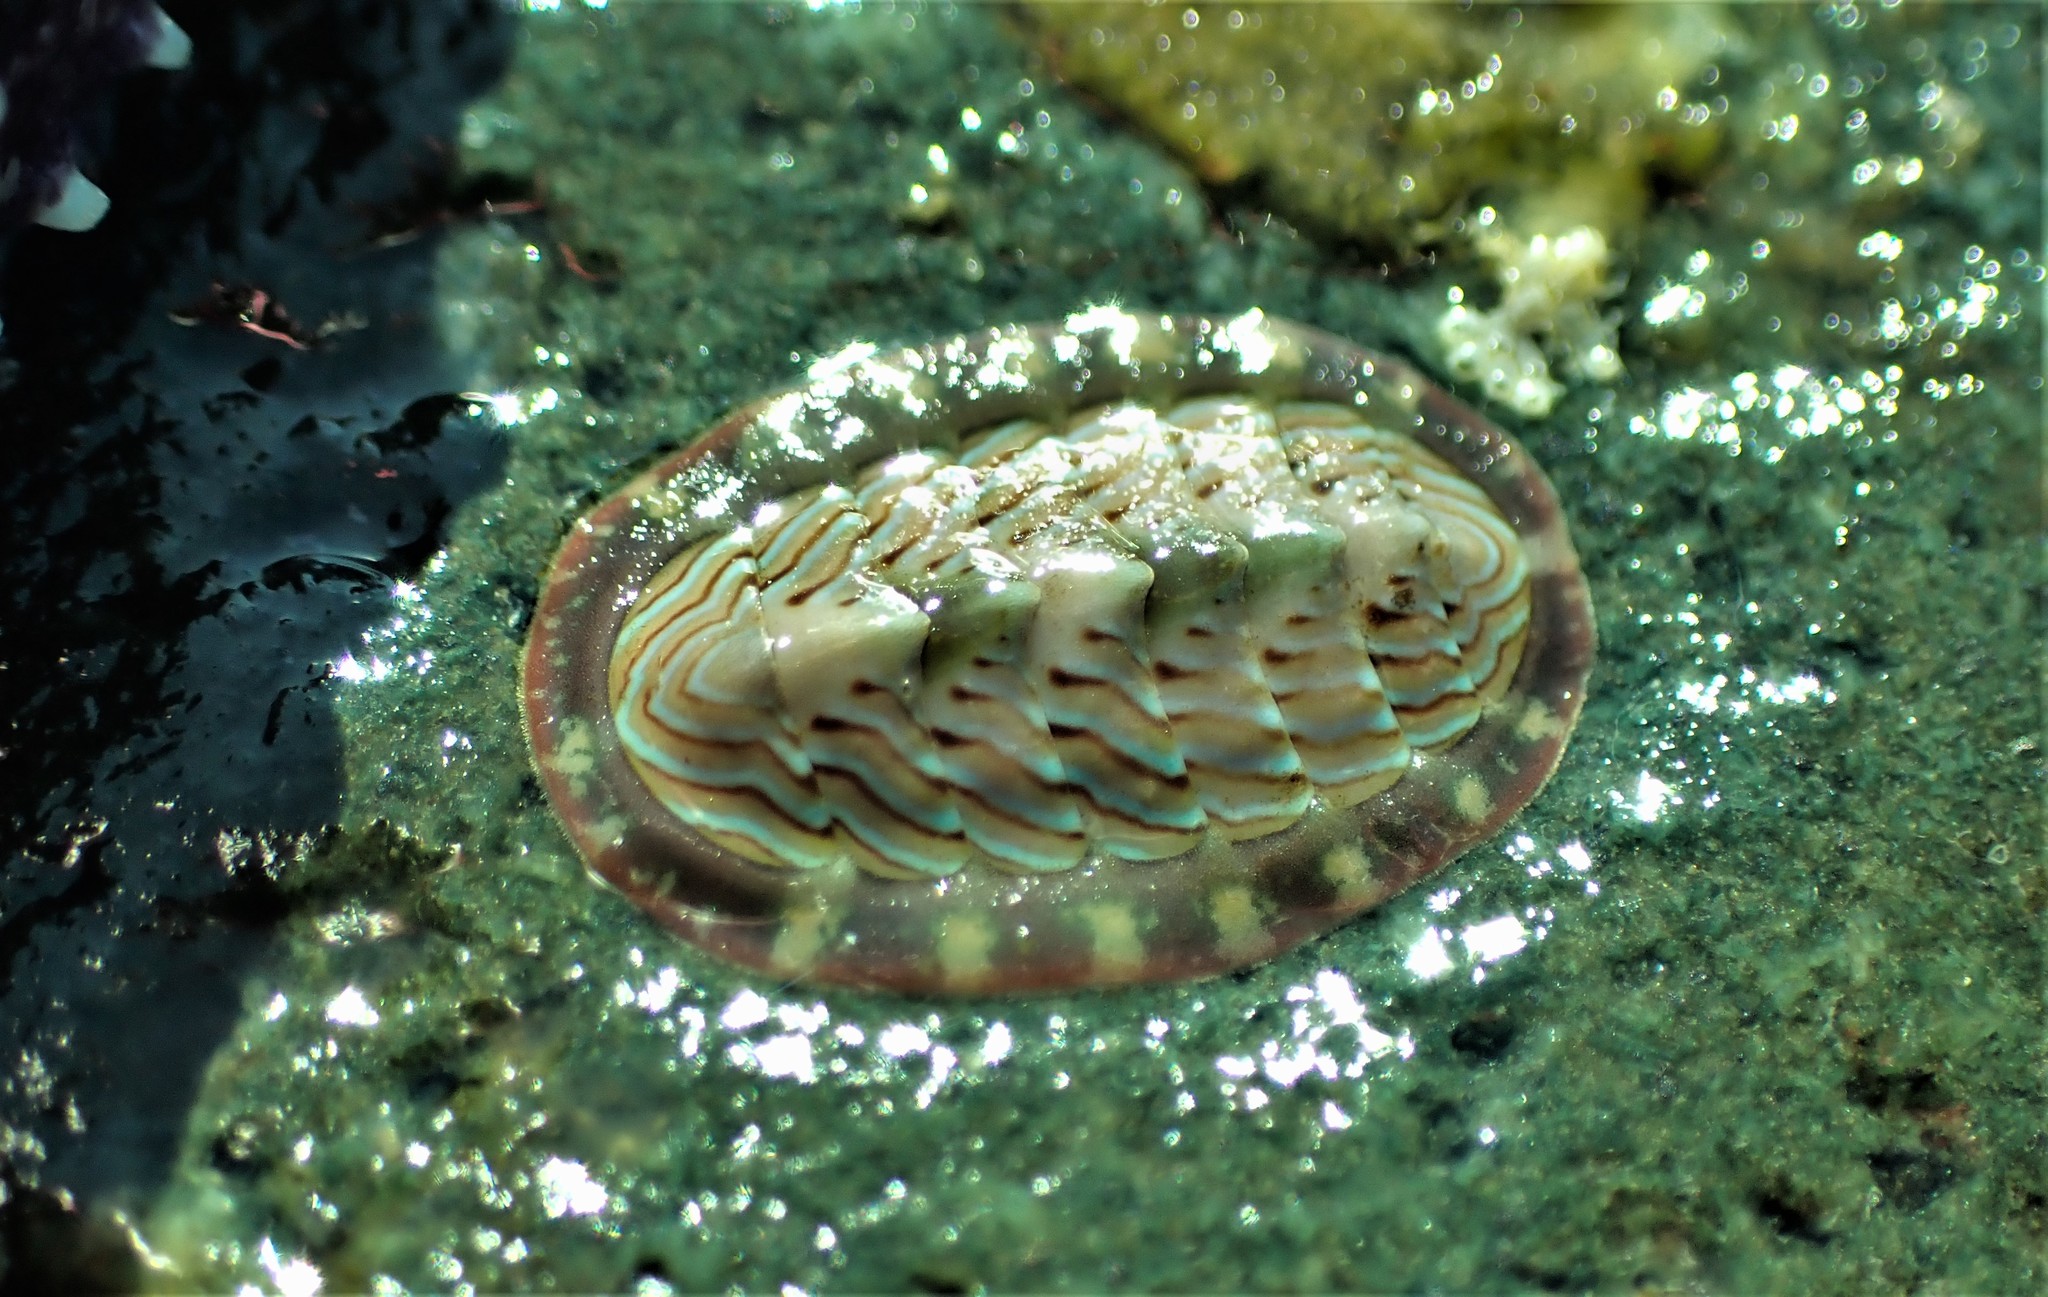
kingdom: Animalia
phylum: Mollusca
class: Polyplacophora
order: Chitonida
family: Tonicellidae
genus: Tonicella
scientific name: Tonicella lineata
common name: Lined chiton
